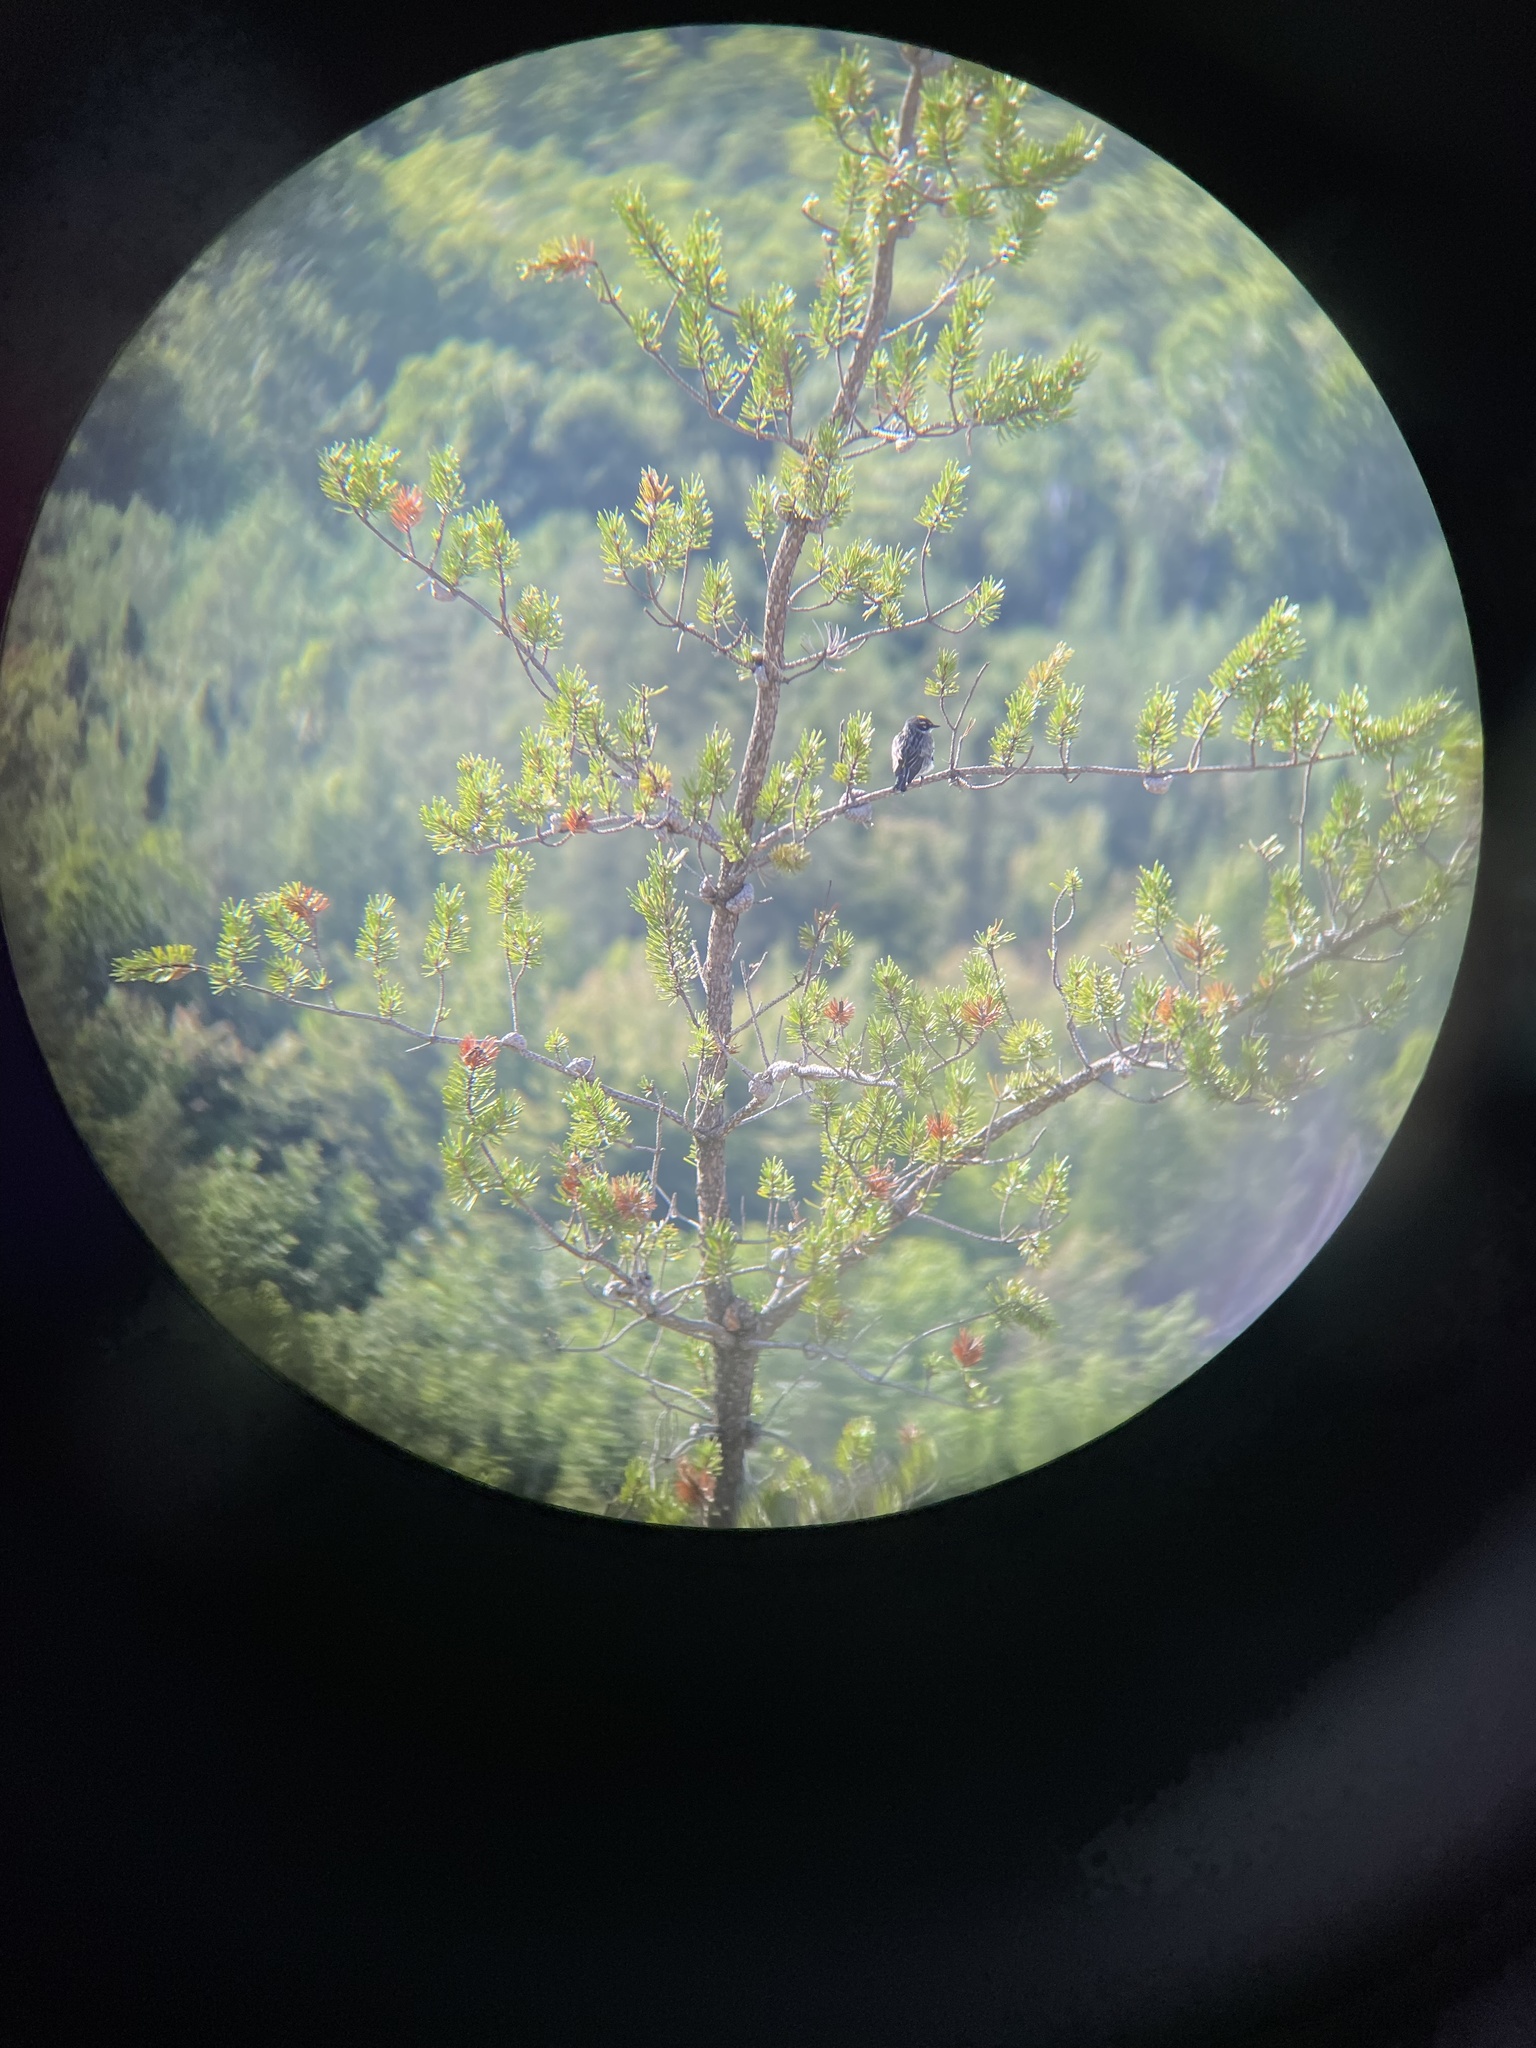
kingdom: Animalia
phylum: Chordata
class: Aves
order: Passeriformes
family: Parulidae
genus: Setophaga
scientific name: Setophaga coronata
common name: Myrtle warbler
